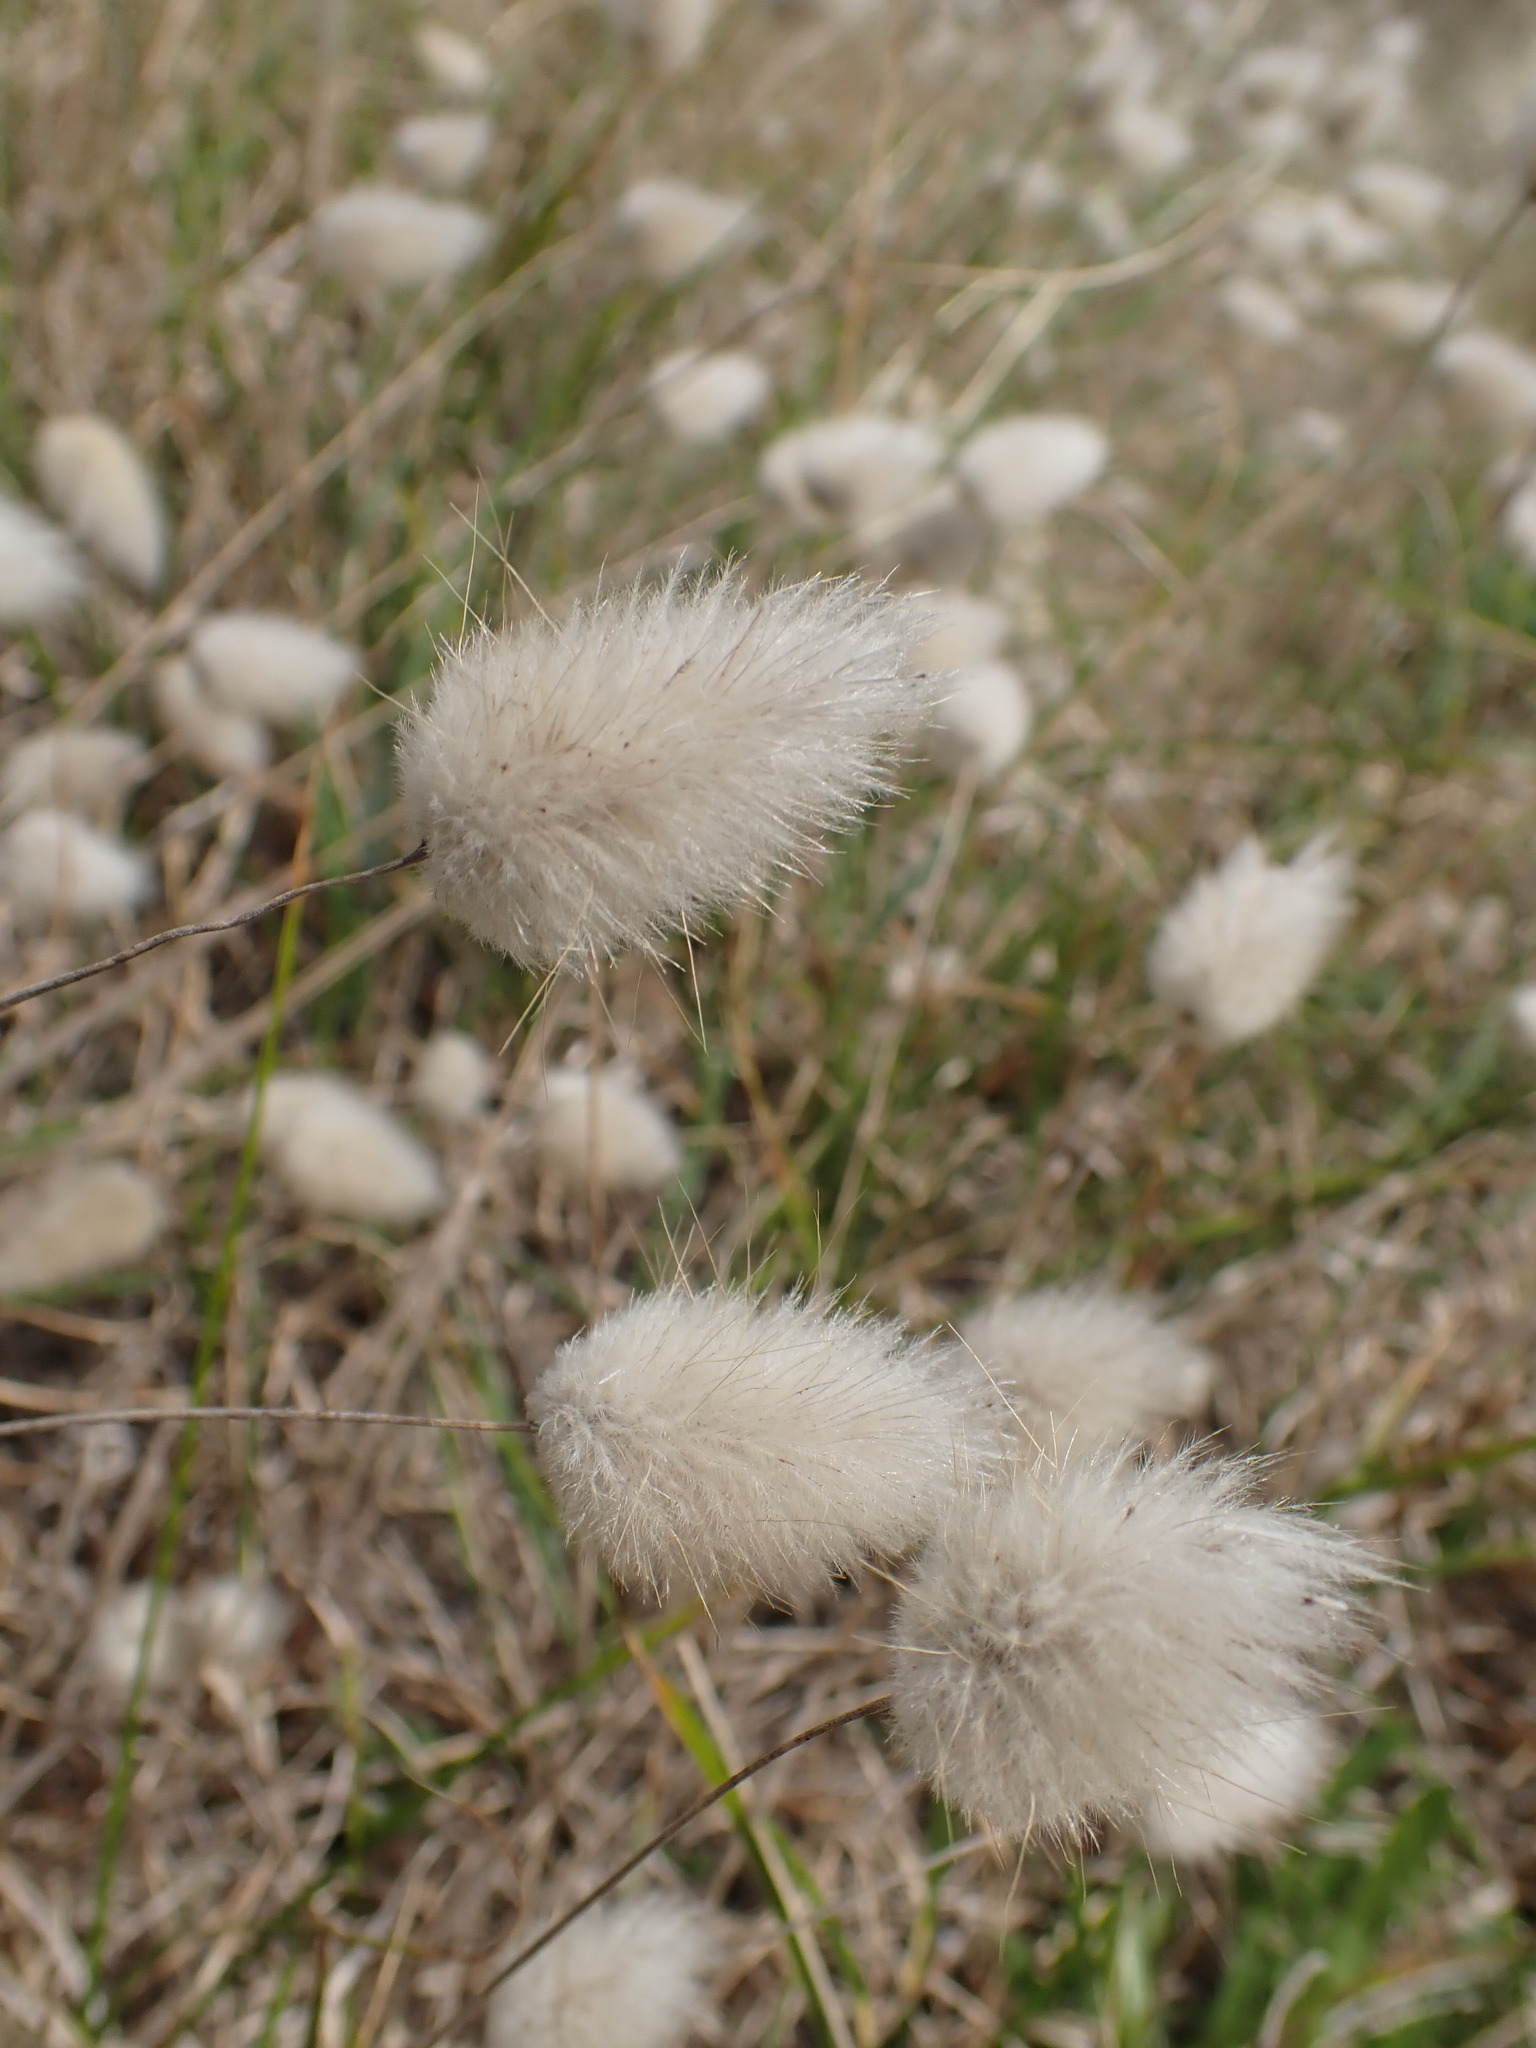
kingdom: Plantae
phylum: Tracheophyta
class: Liliopsida
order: Poales
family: Poaceae
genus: Lagurus
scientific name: Lagurus ovatus
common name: Hare's-tail
